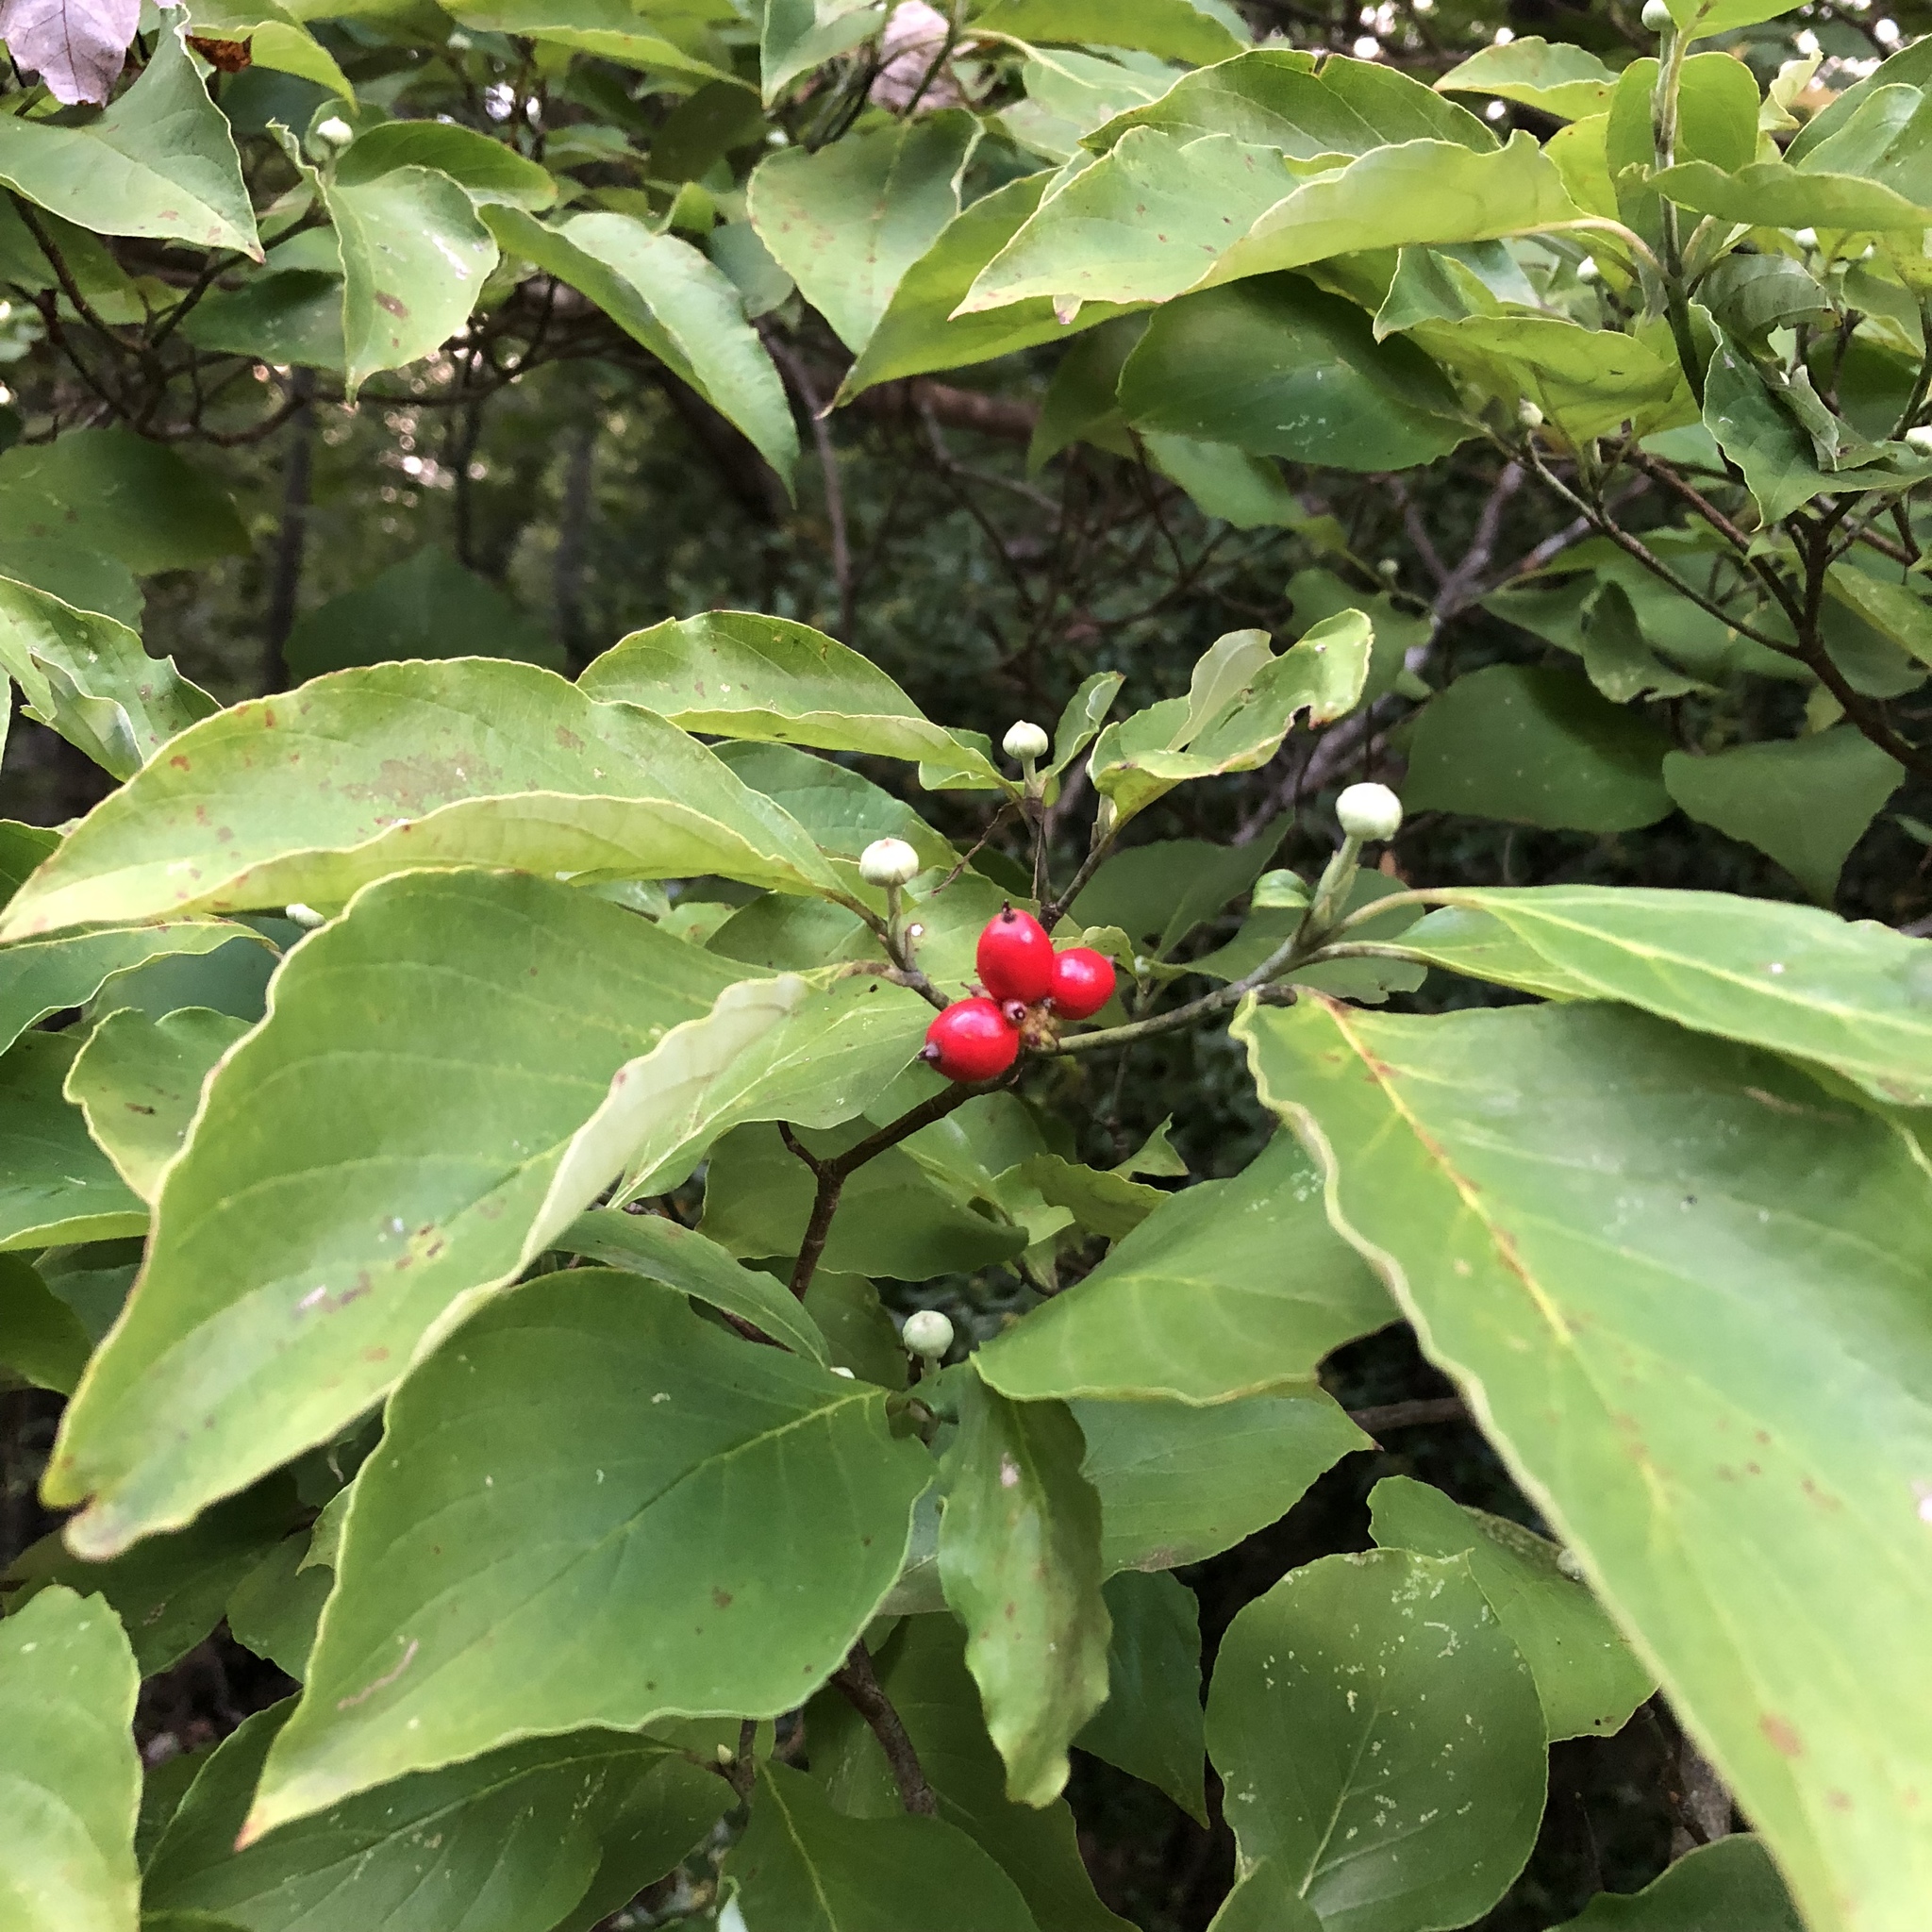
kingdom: Plantae
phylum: Tracheophyta
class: Magnoliopsida
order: Cornales
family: Cornaceae
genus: Cornus
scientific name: Cornus florida
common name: Flowering dogwood
